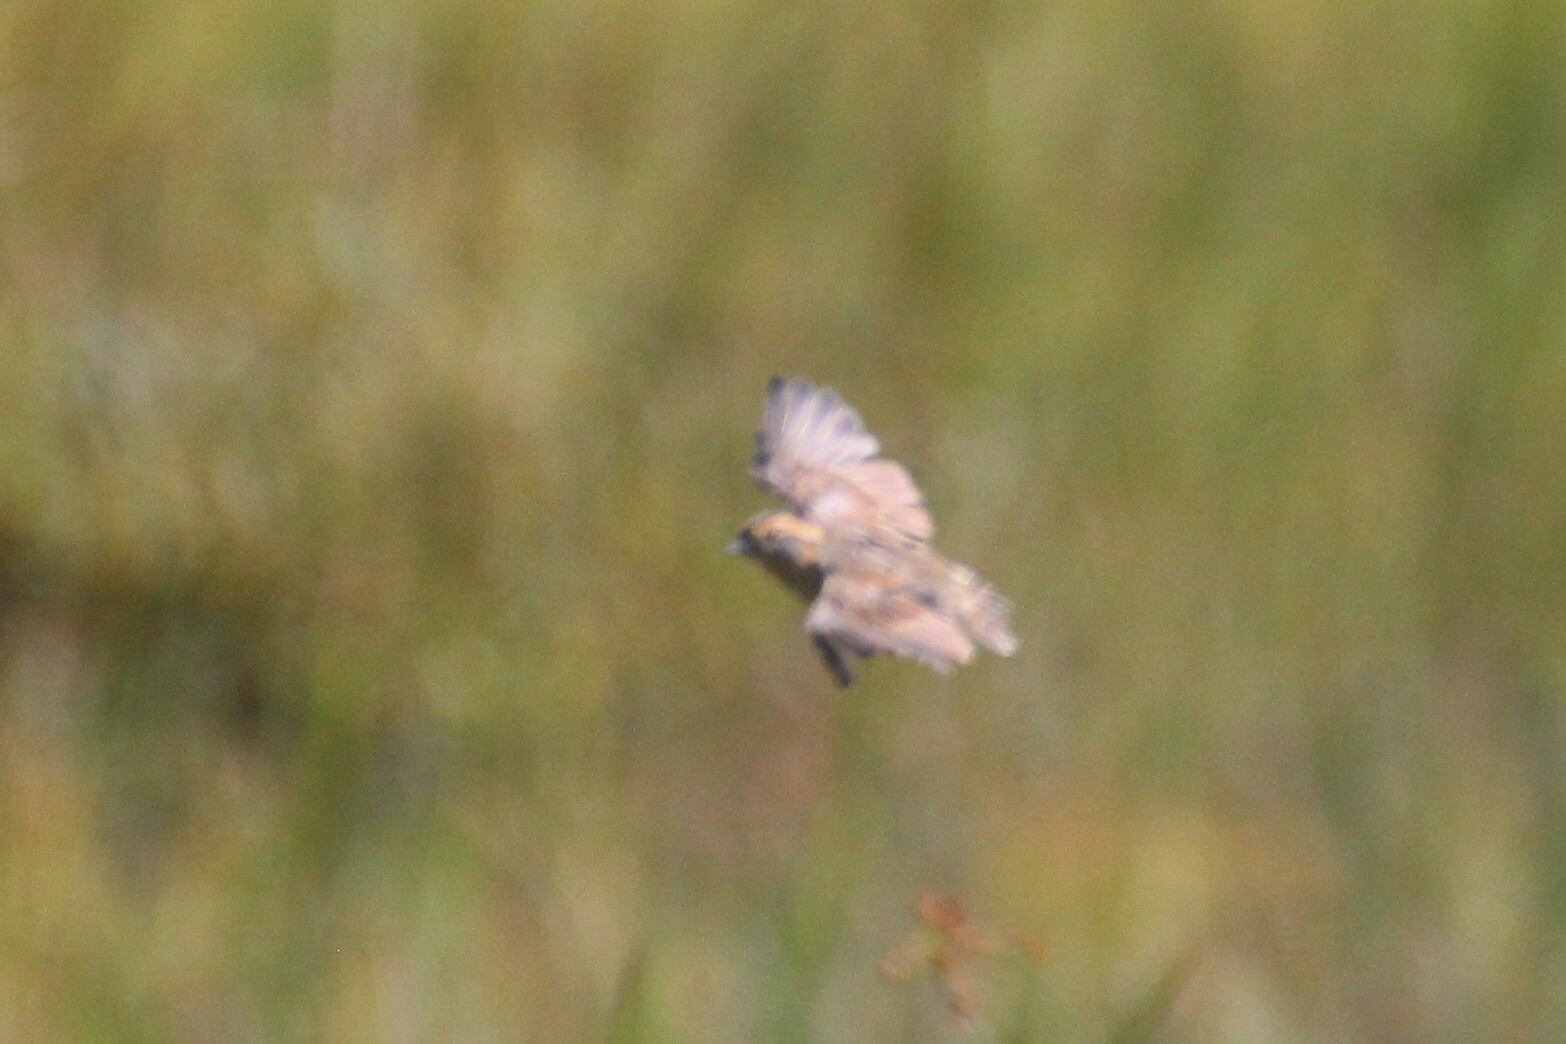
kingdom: Animalia
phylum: Chordata
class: Aves
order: Passeriformes
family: Passerellidae
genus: Ammospiza
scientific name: Ammospiza nelsoni
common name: Nelson's sparrow
